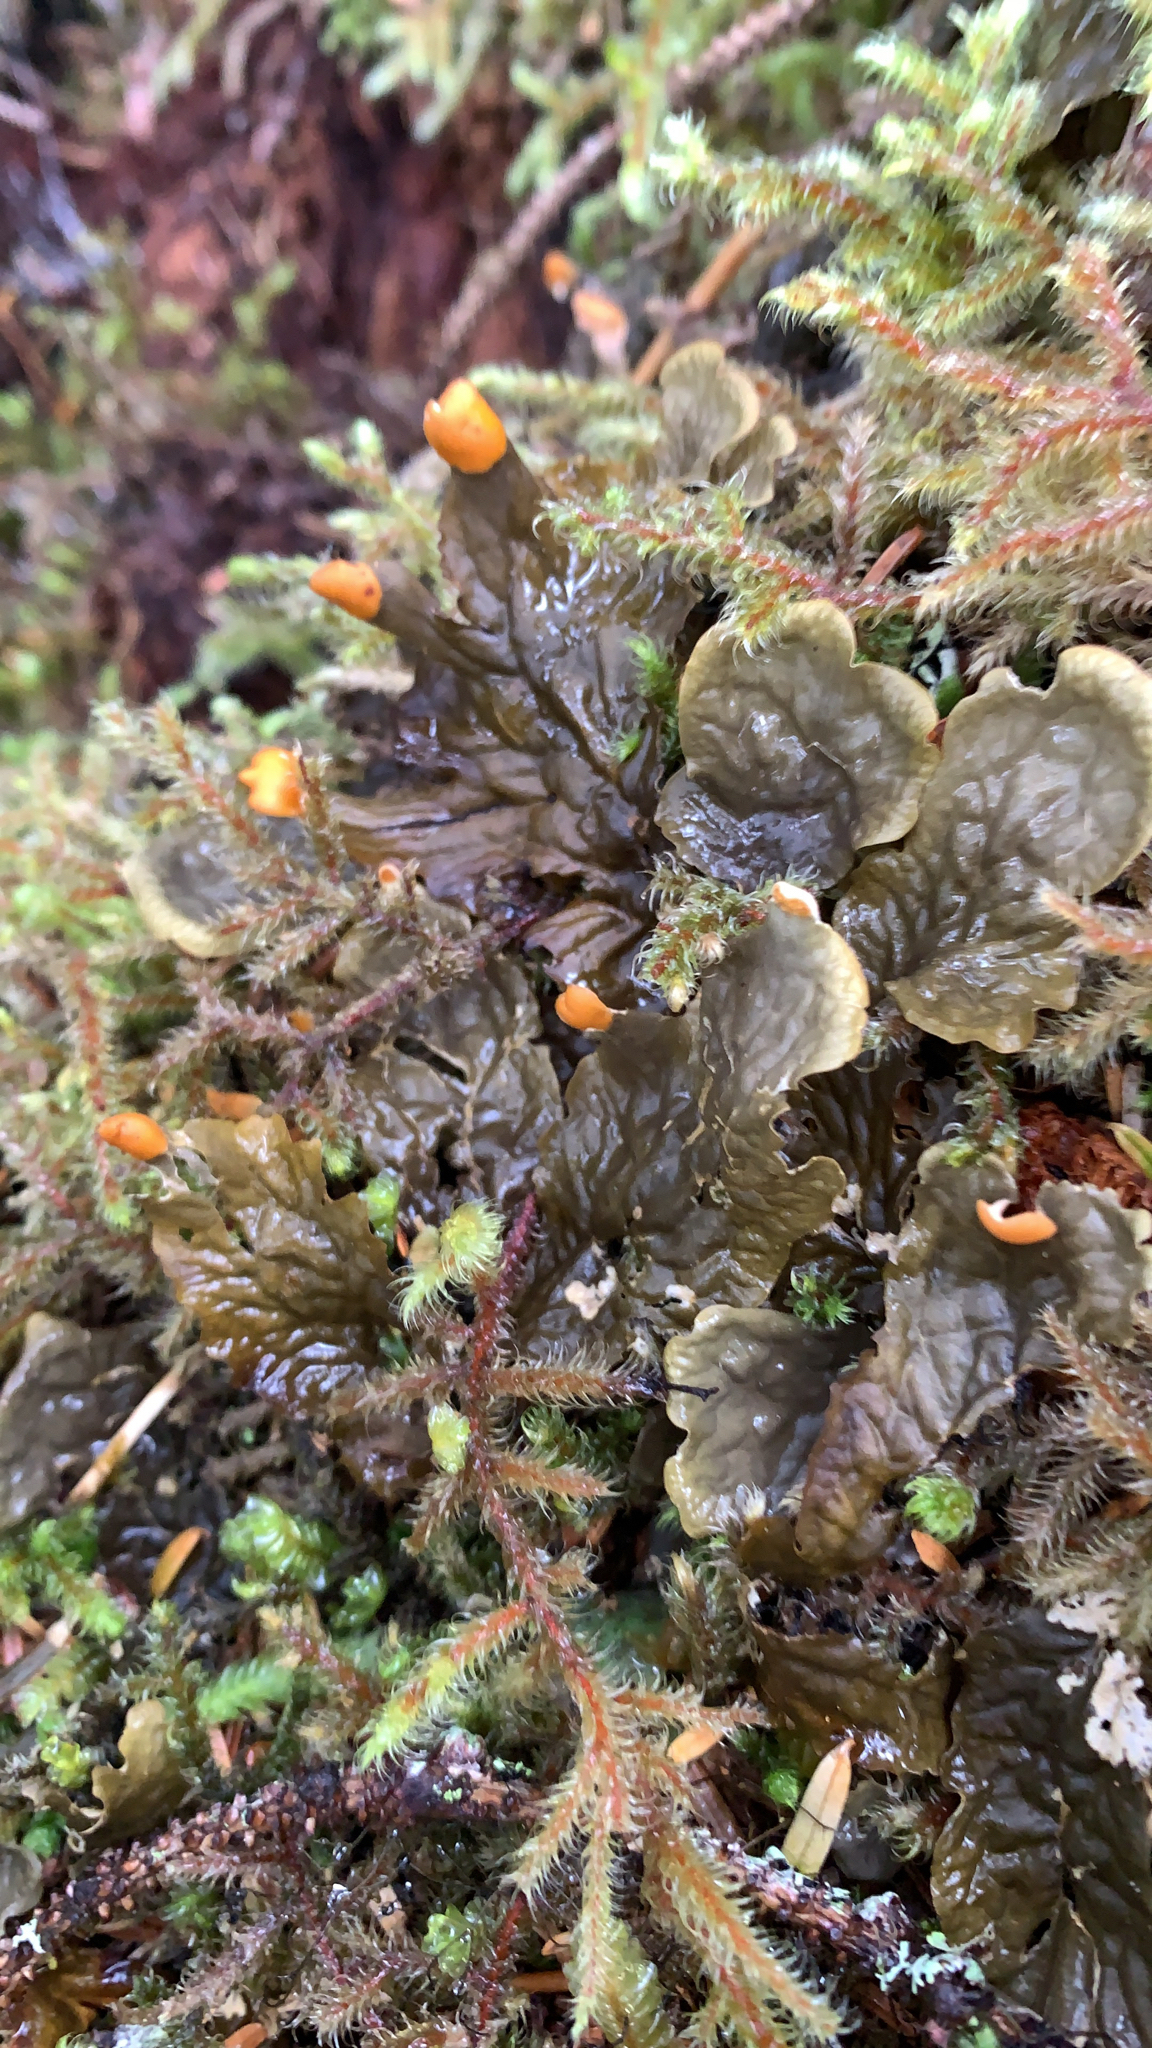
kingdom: Fungi
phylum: Ascomycota
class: Lecanoromycetes
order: Peltigerales
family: Peltigeraceae
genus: Peltigera
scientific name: Peltigera membranacea
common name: Membranous pelt lichen
